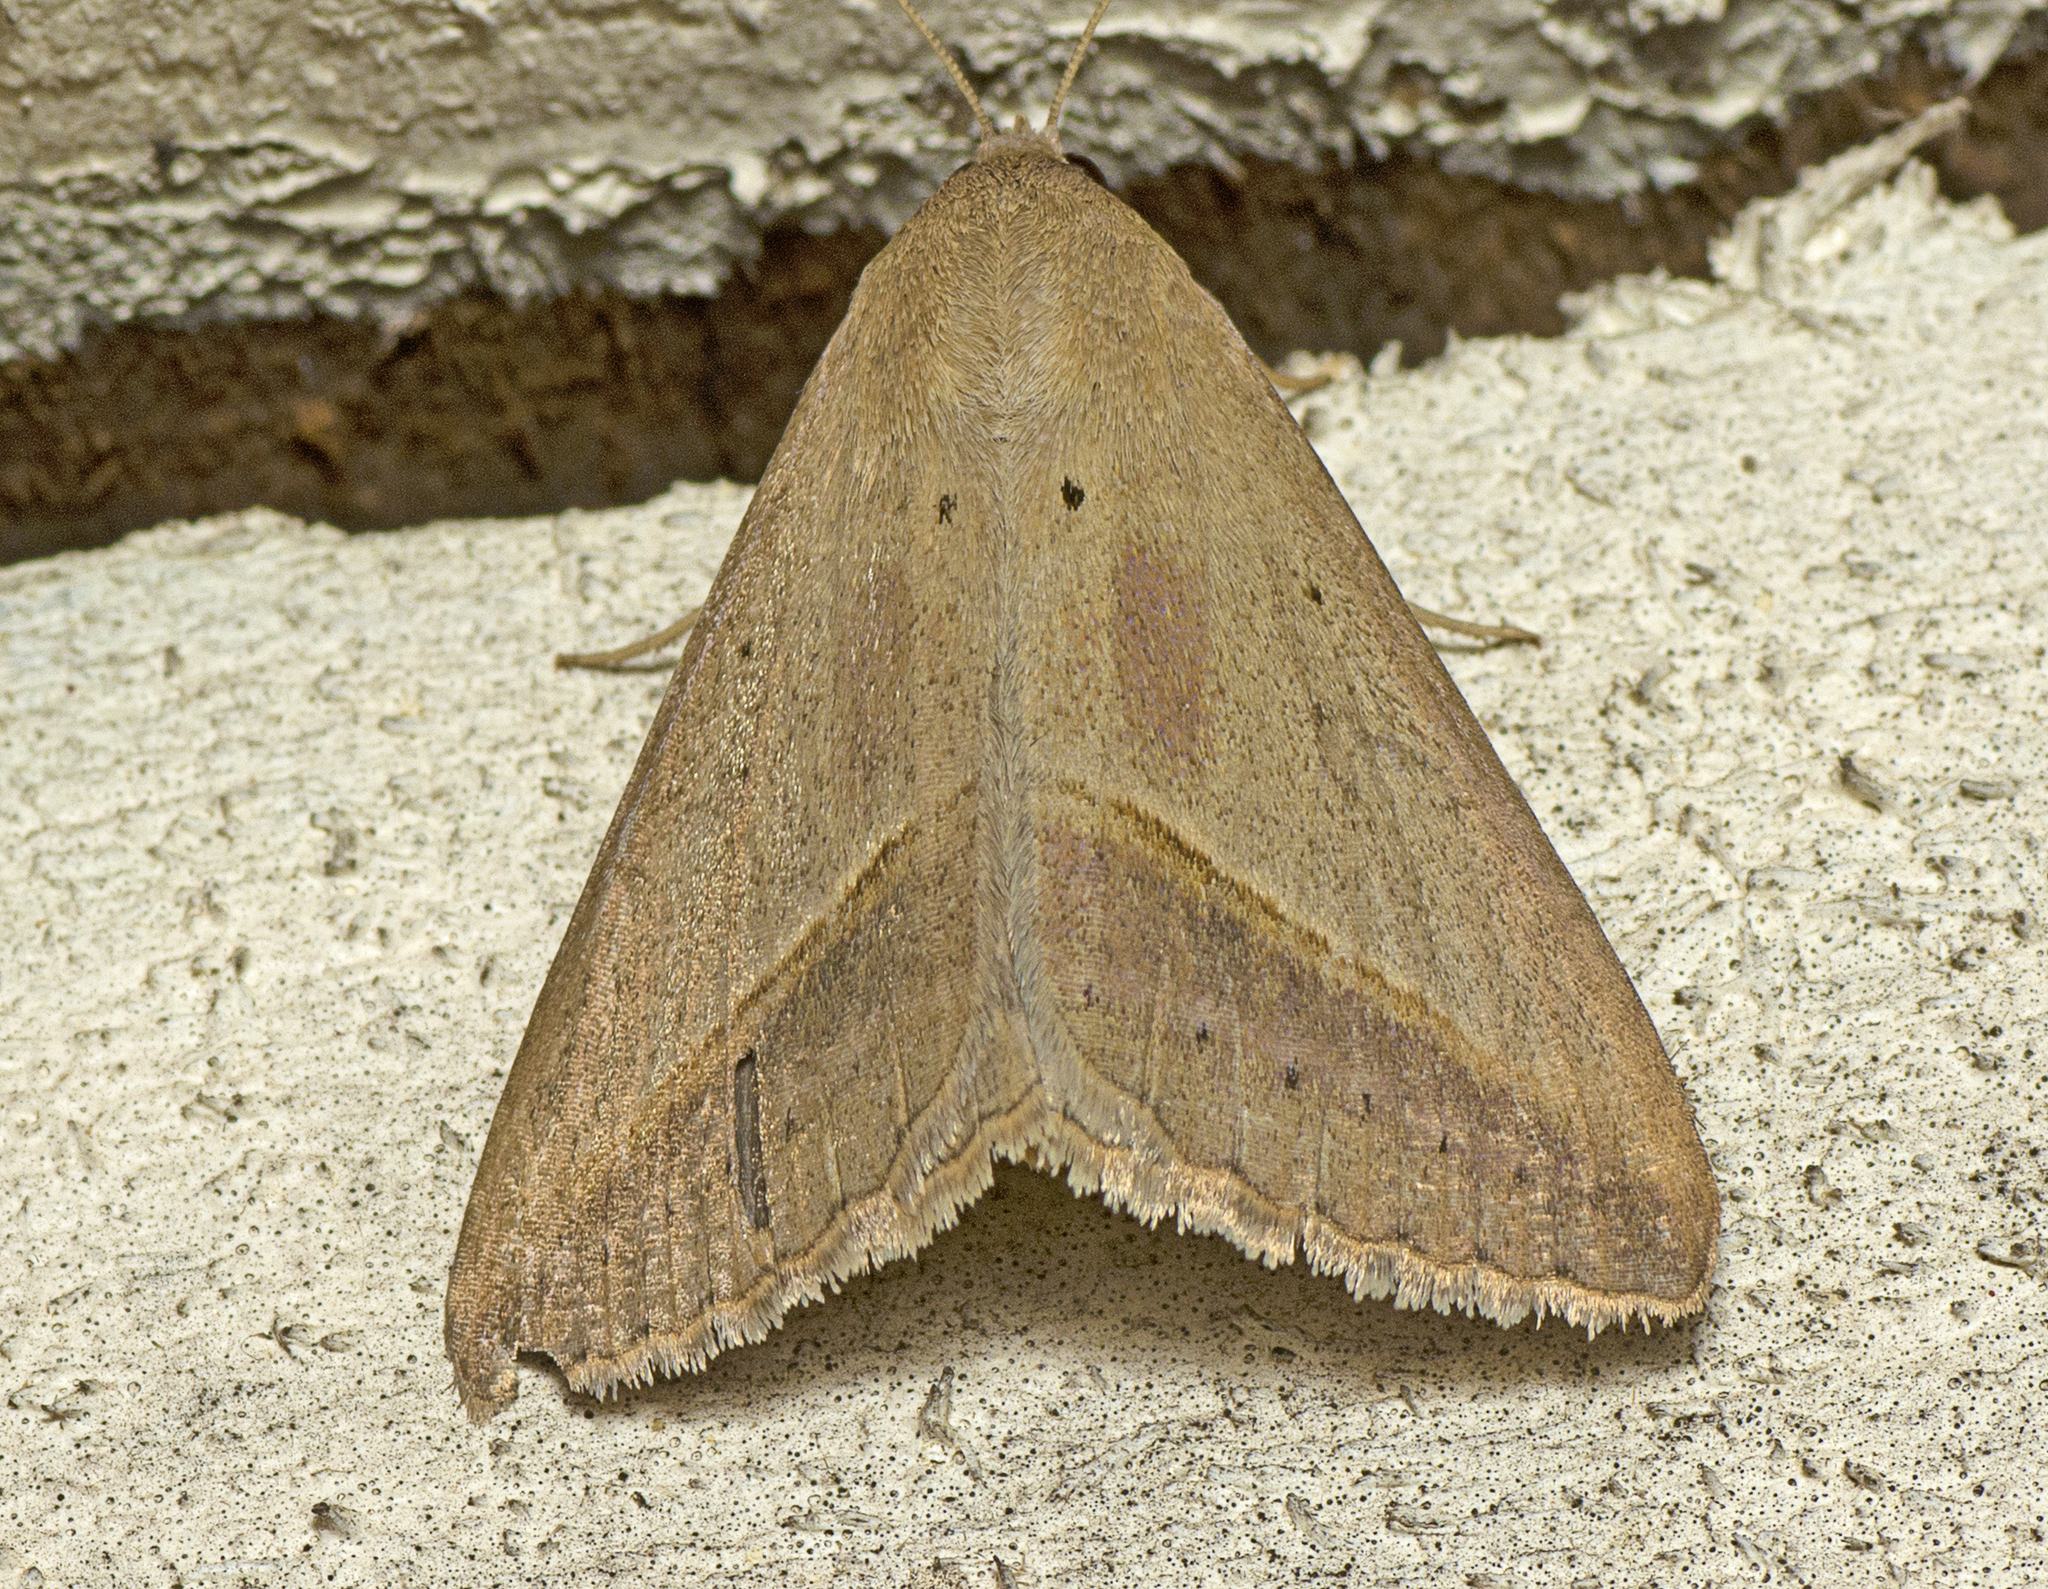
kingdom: Animalia
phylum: Arthropoda
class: Insecta
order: Lepidoptera
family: Erebidae
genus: Mocis
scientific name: Mocis frugalis
